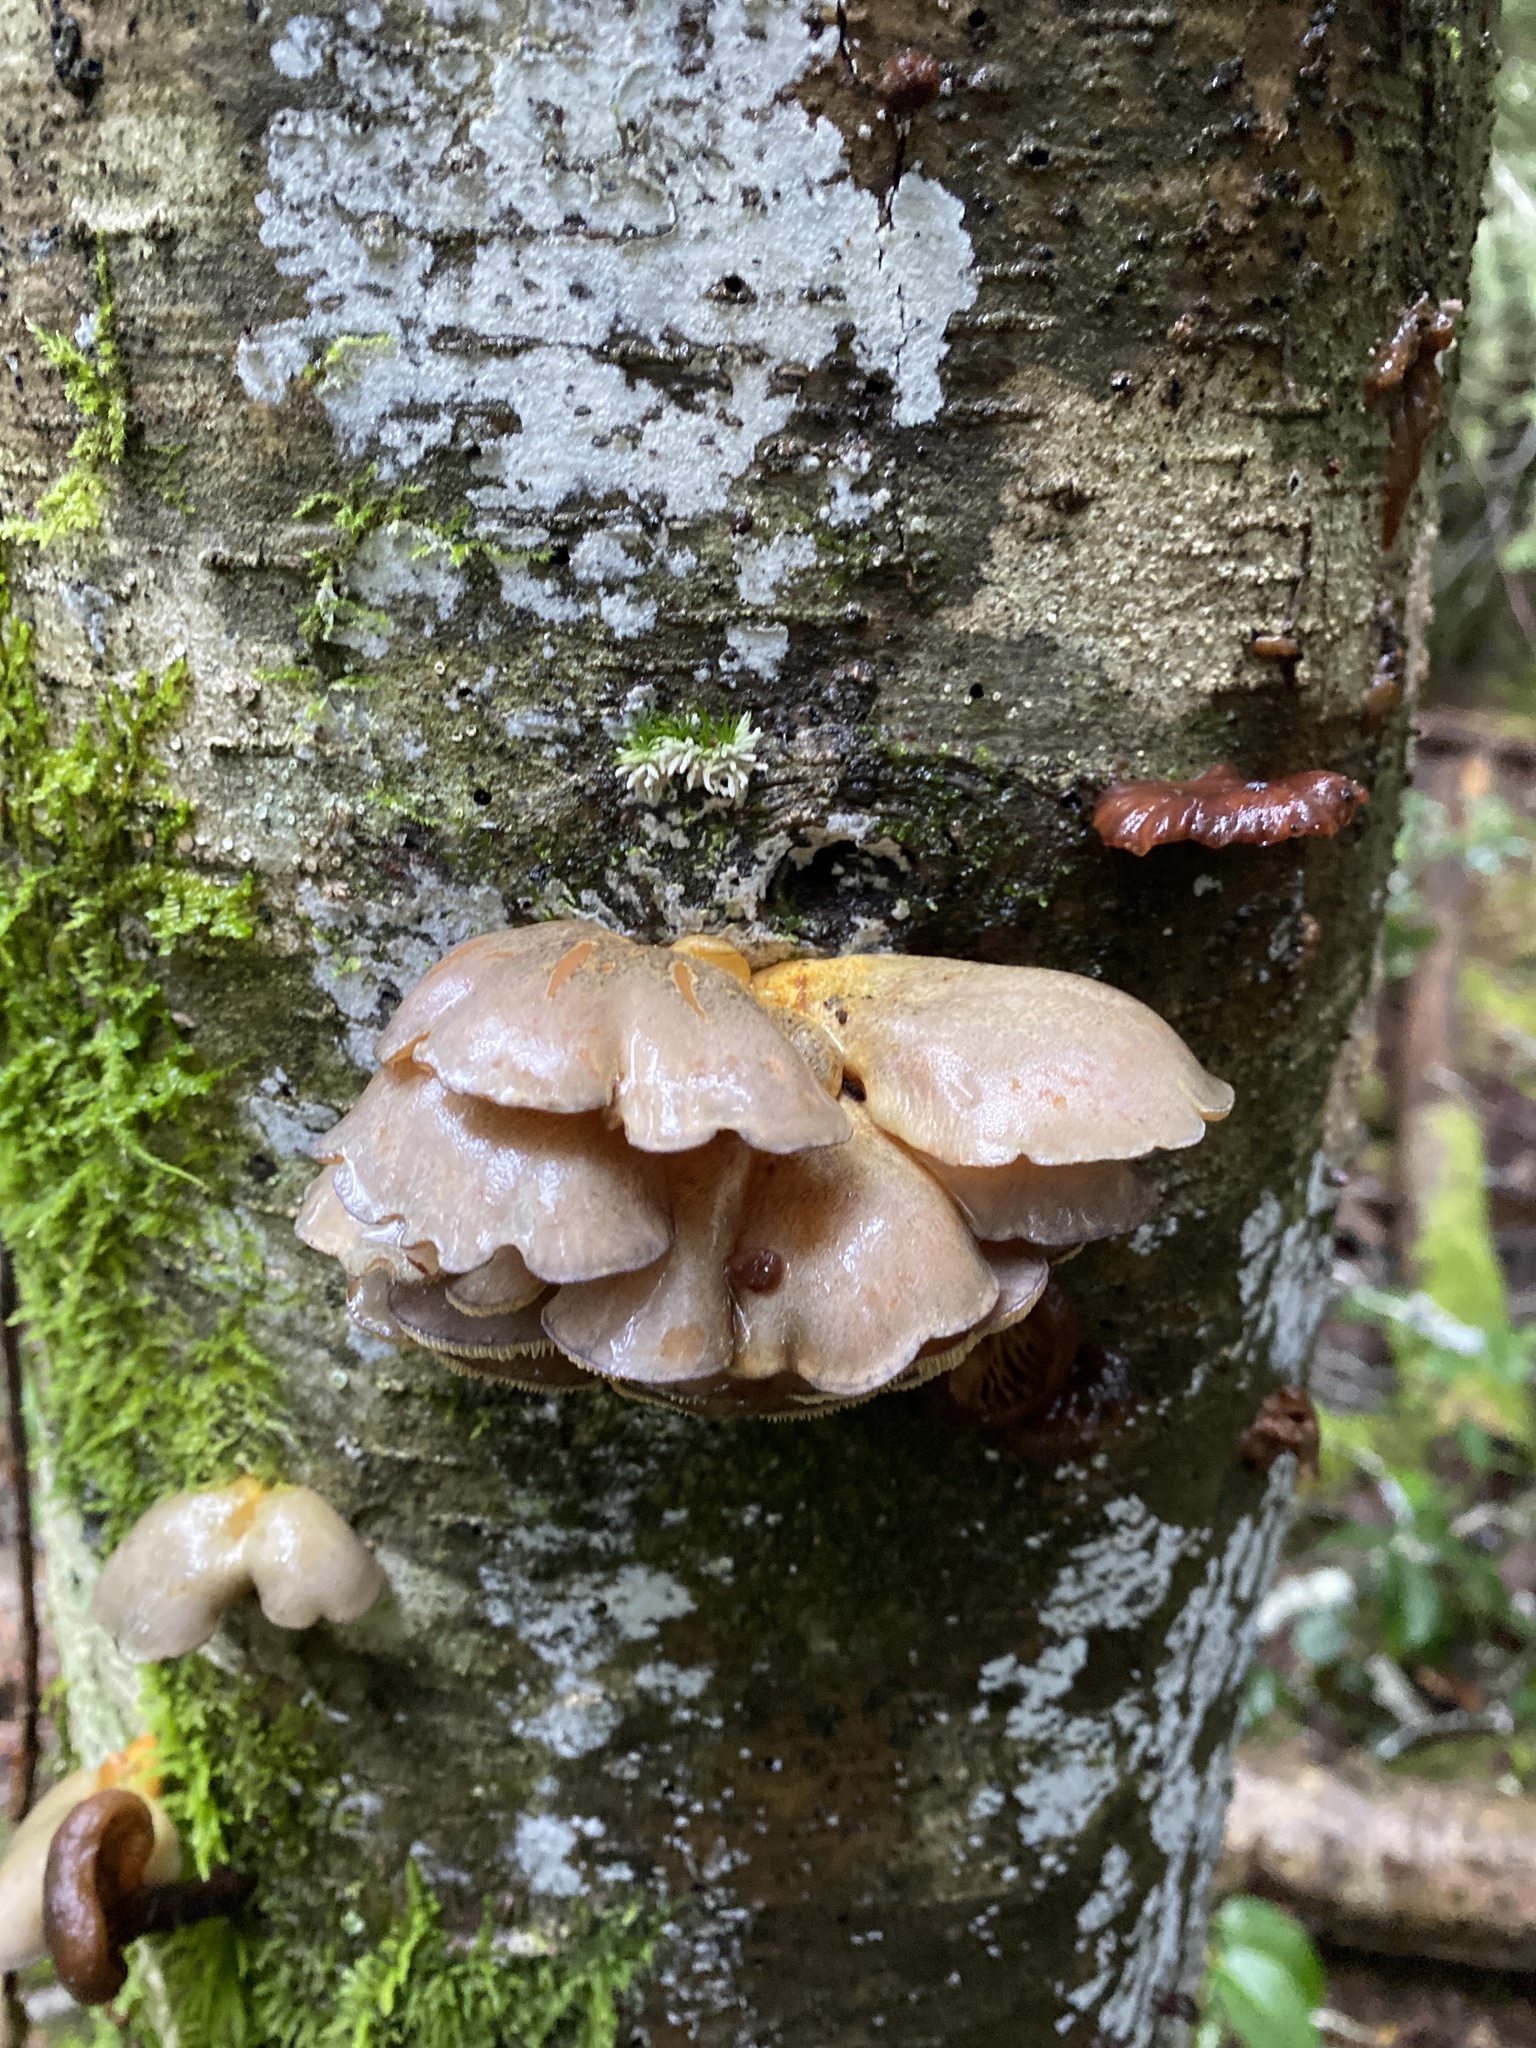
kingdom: Fungi
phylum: Basidiomycota
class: Agaricomycetes
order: Agaricales
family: Sarcomyxaceae
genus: Sarcomyxa
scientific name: Sarcomyxa serotina
